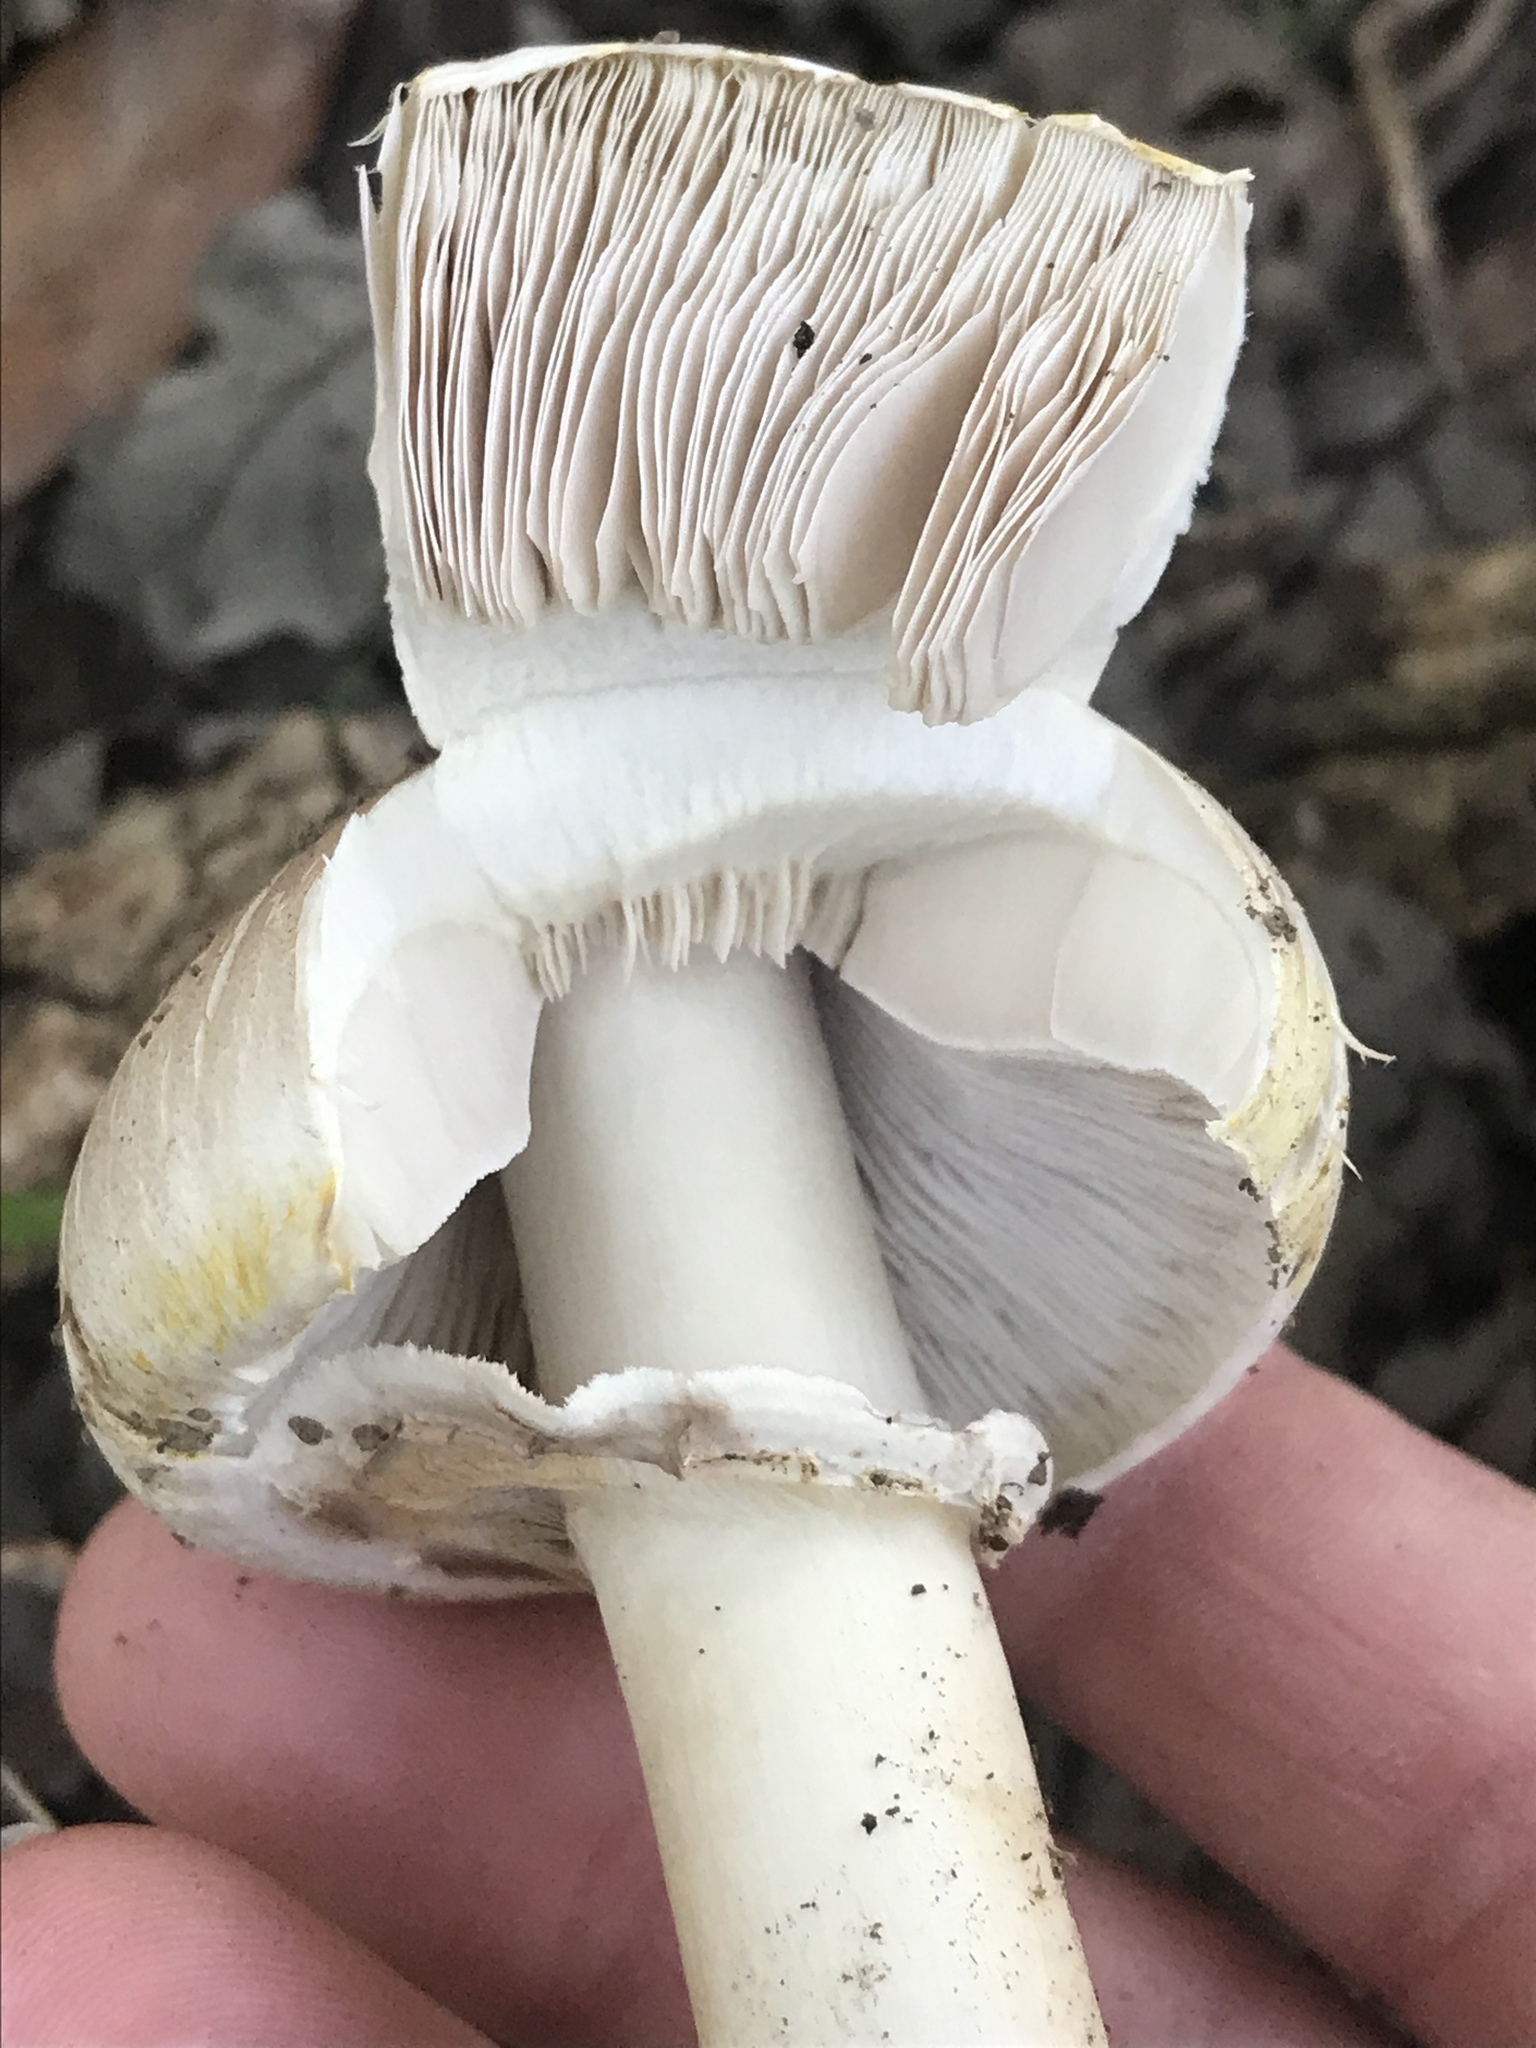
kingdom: Fungi
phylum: Basidiomycota
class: Agaricomycetes
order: Agaricales
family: Agaricaceae
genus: Agaricus
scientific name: Agaricus xanthodermus
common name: Yellow stainer
